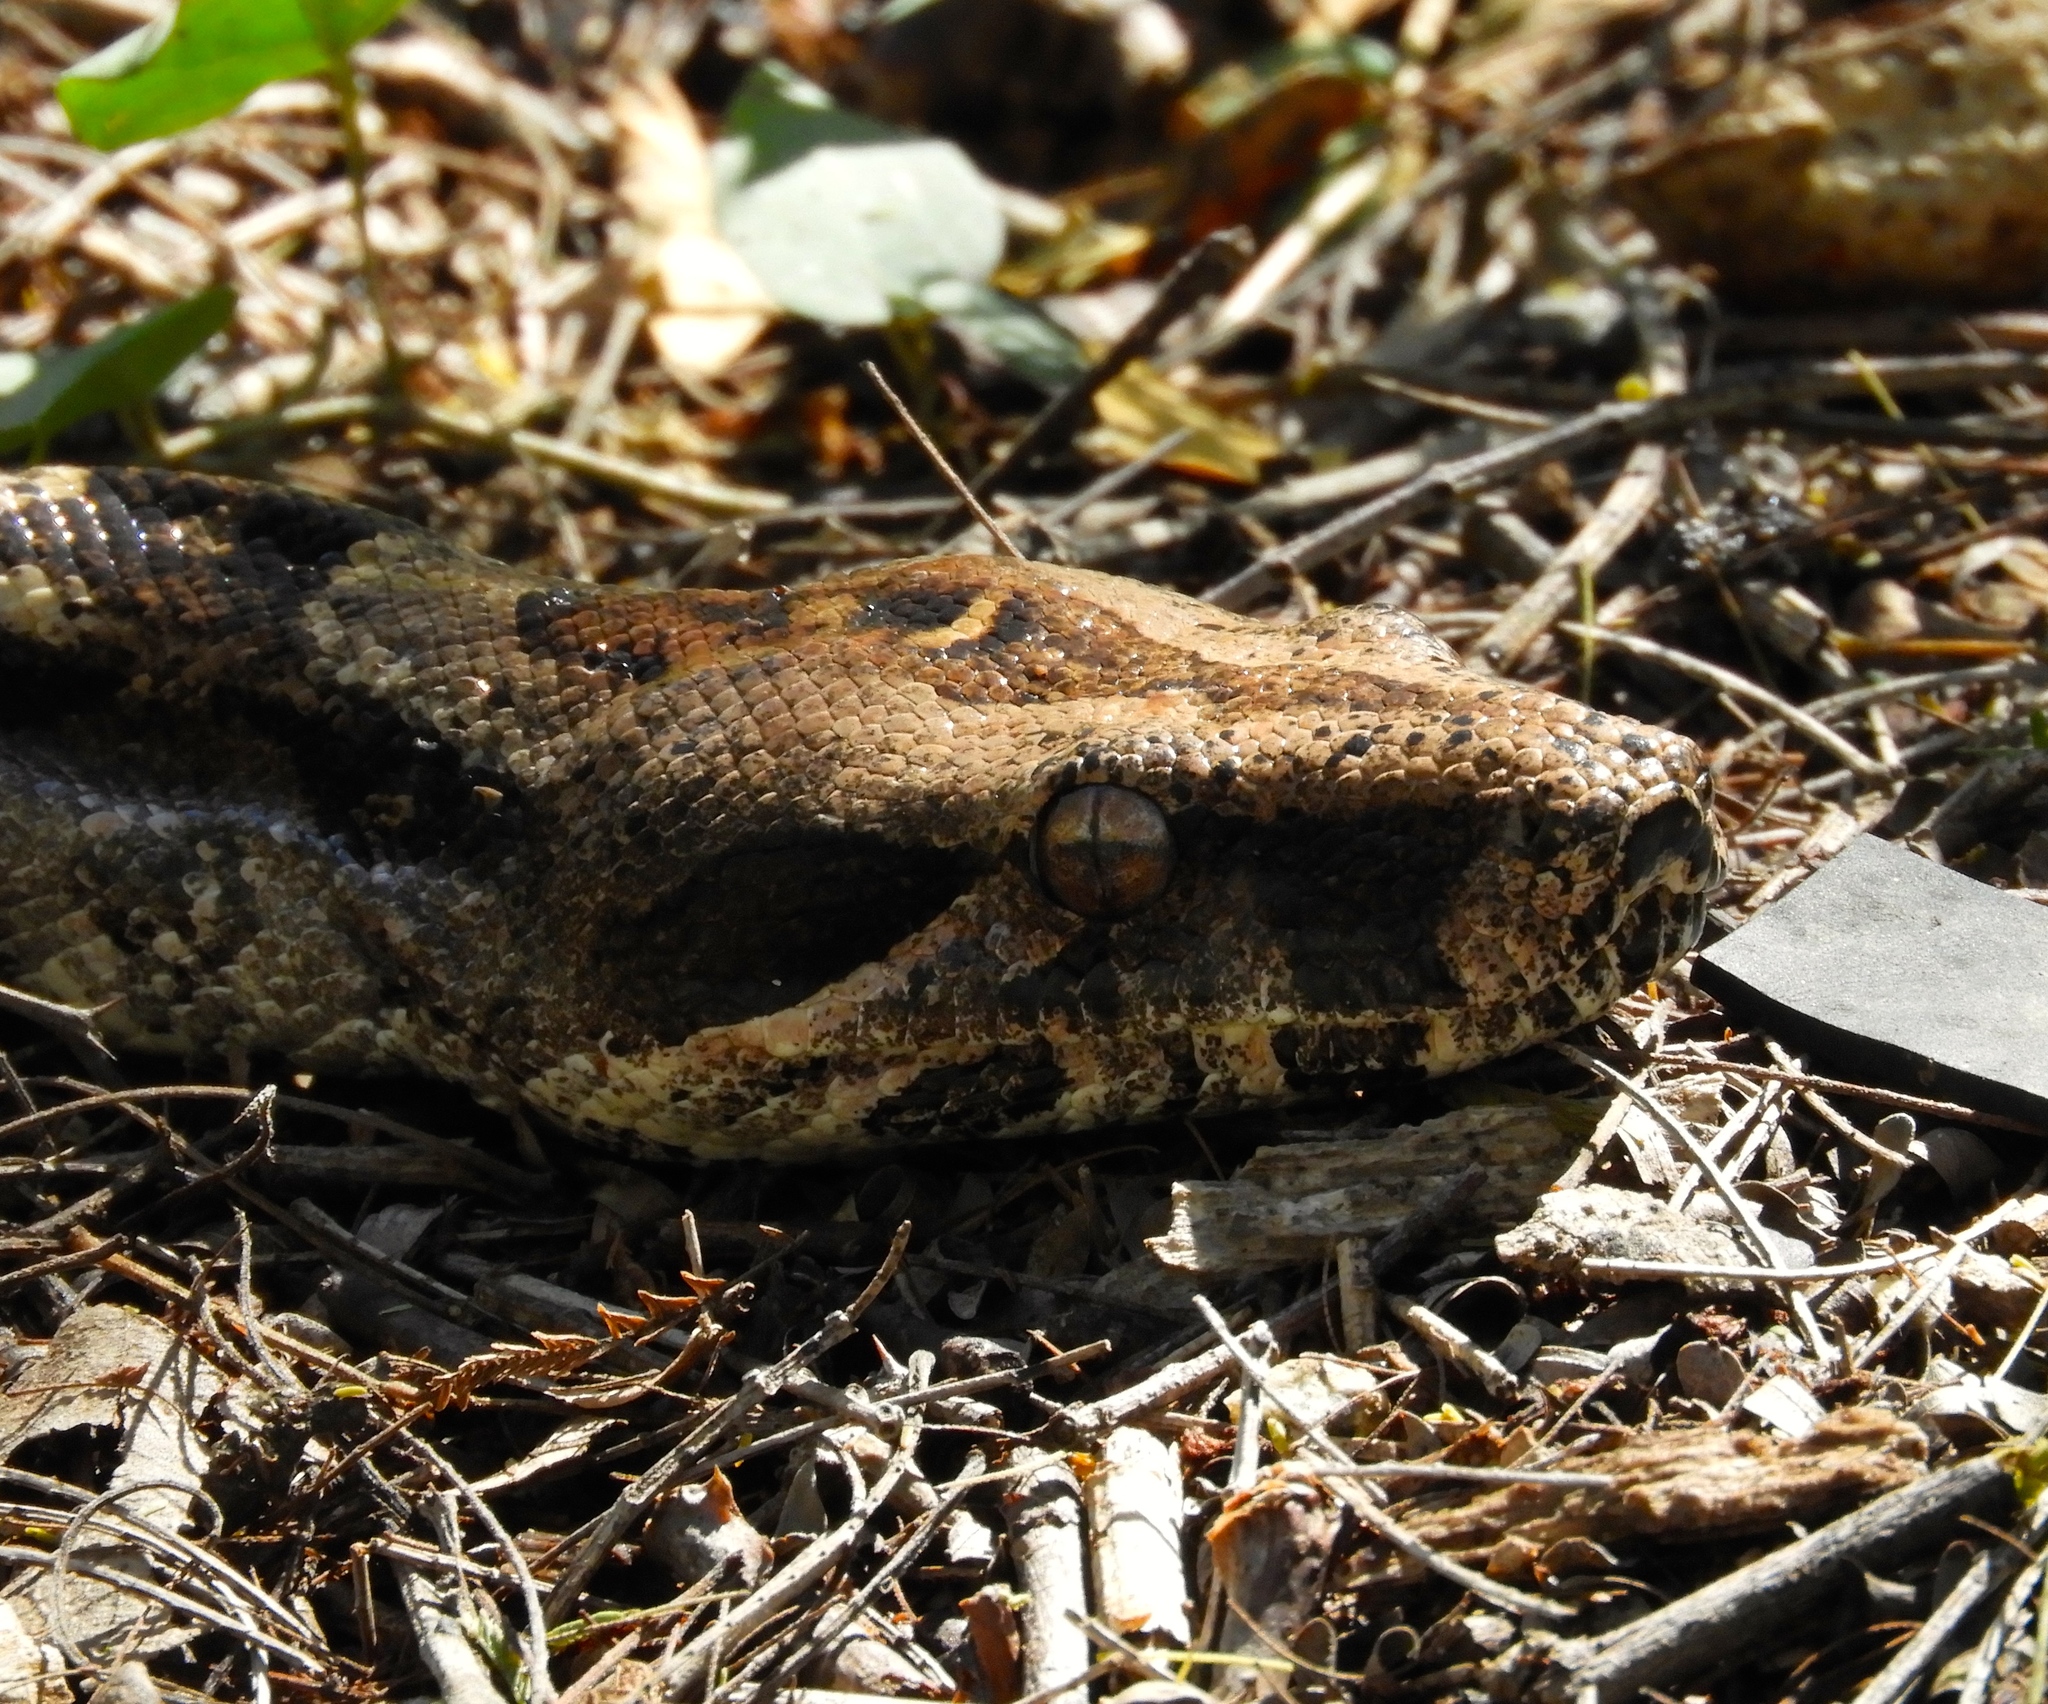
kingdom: Animalia
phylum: Chordata
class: Squamata
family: Boidae
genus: Boa
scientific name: Boa
